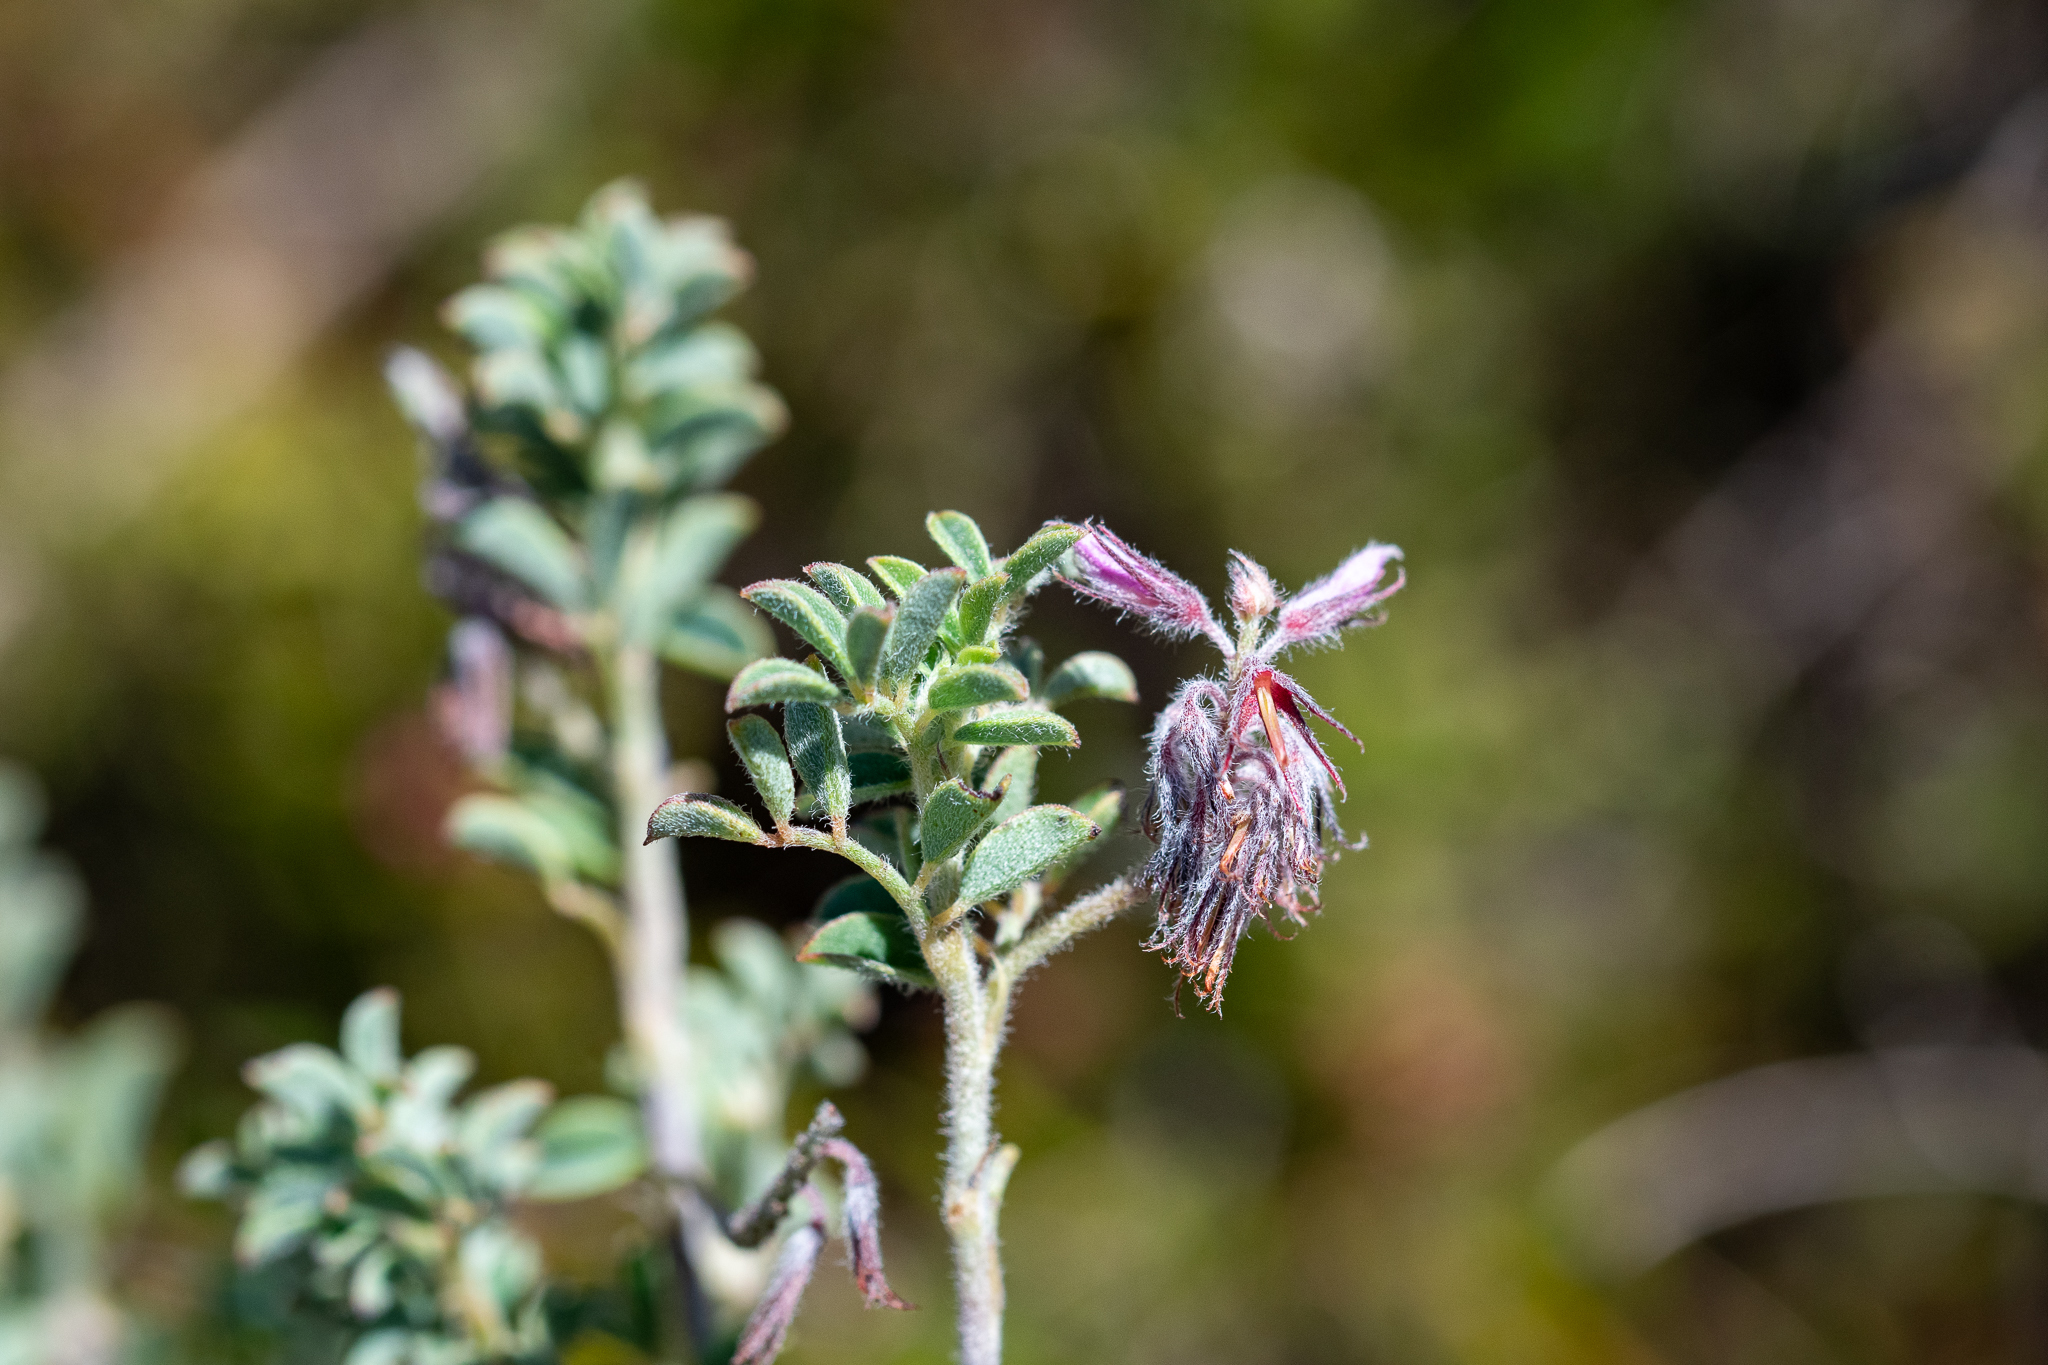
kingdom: Plantae
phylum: Tracheophyta
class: Magnoliopsida
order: Fabales
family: Fabaceae
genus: Indigofera
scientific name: Indigofera alopecuroides
